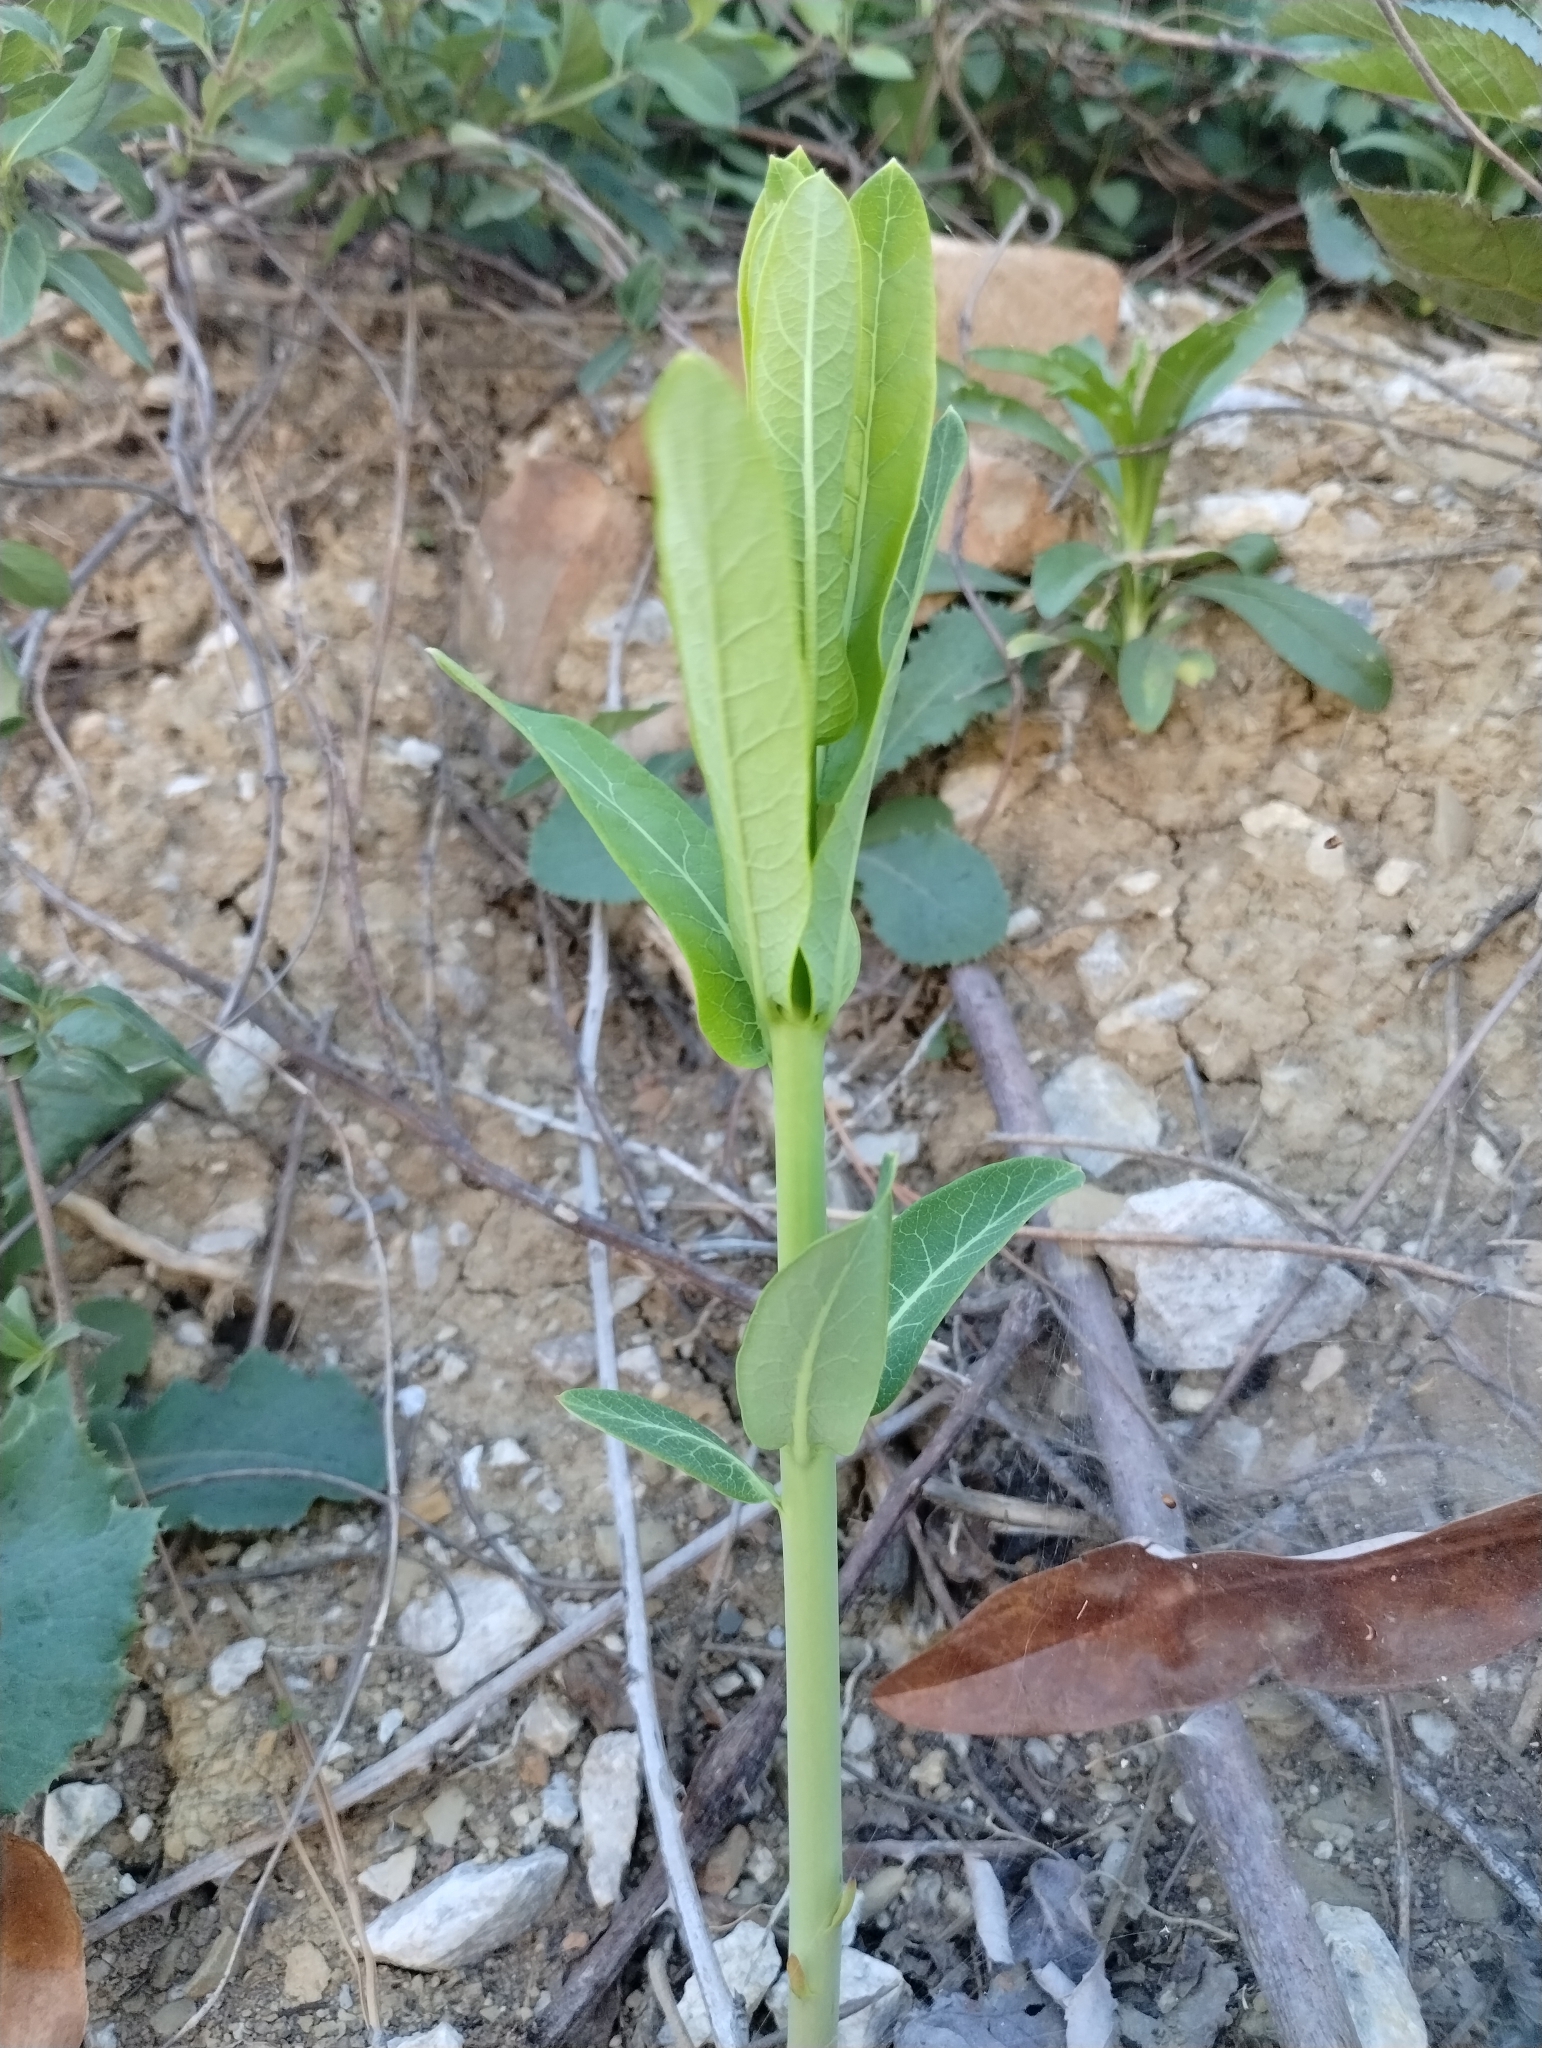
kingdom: Plantae
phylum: Tracheophyta
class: Magnoliopsida
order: Gentianales
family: Apocynaceae
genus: Apocynum
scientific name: Apocynum cannabinum
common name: Hemp dogbane
